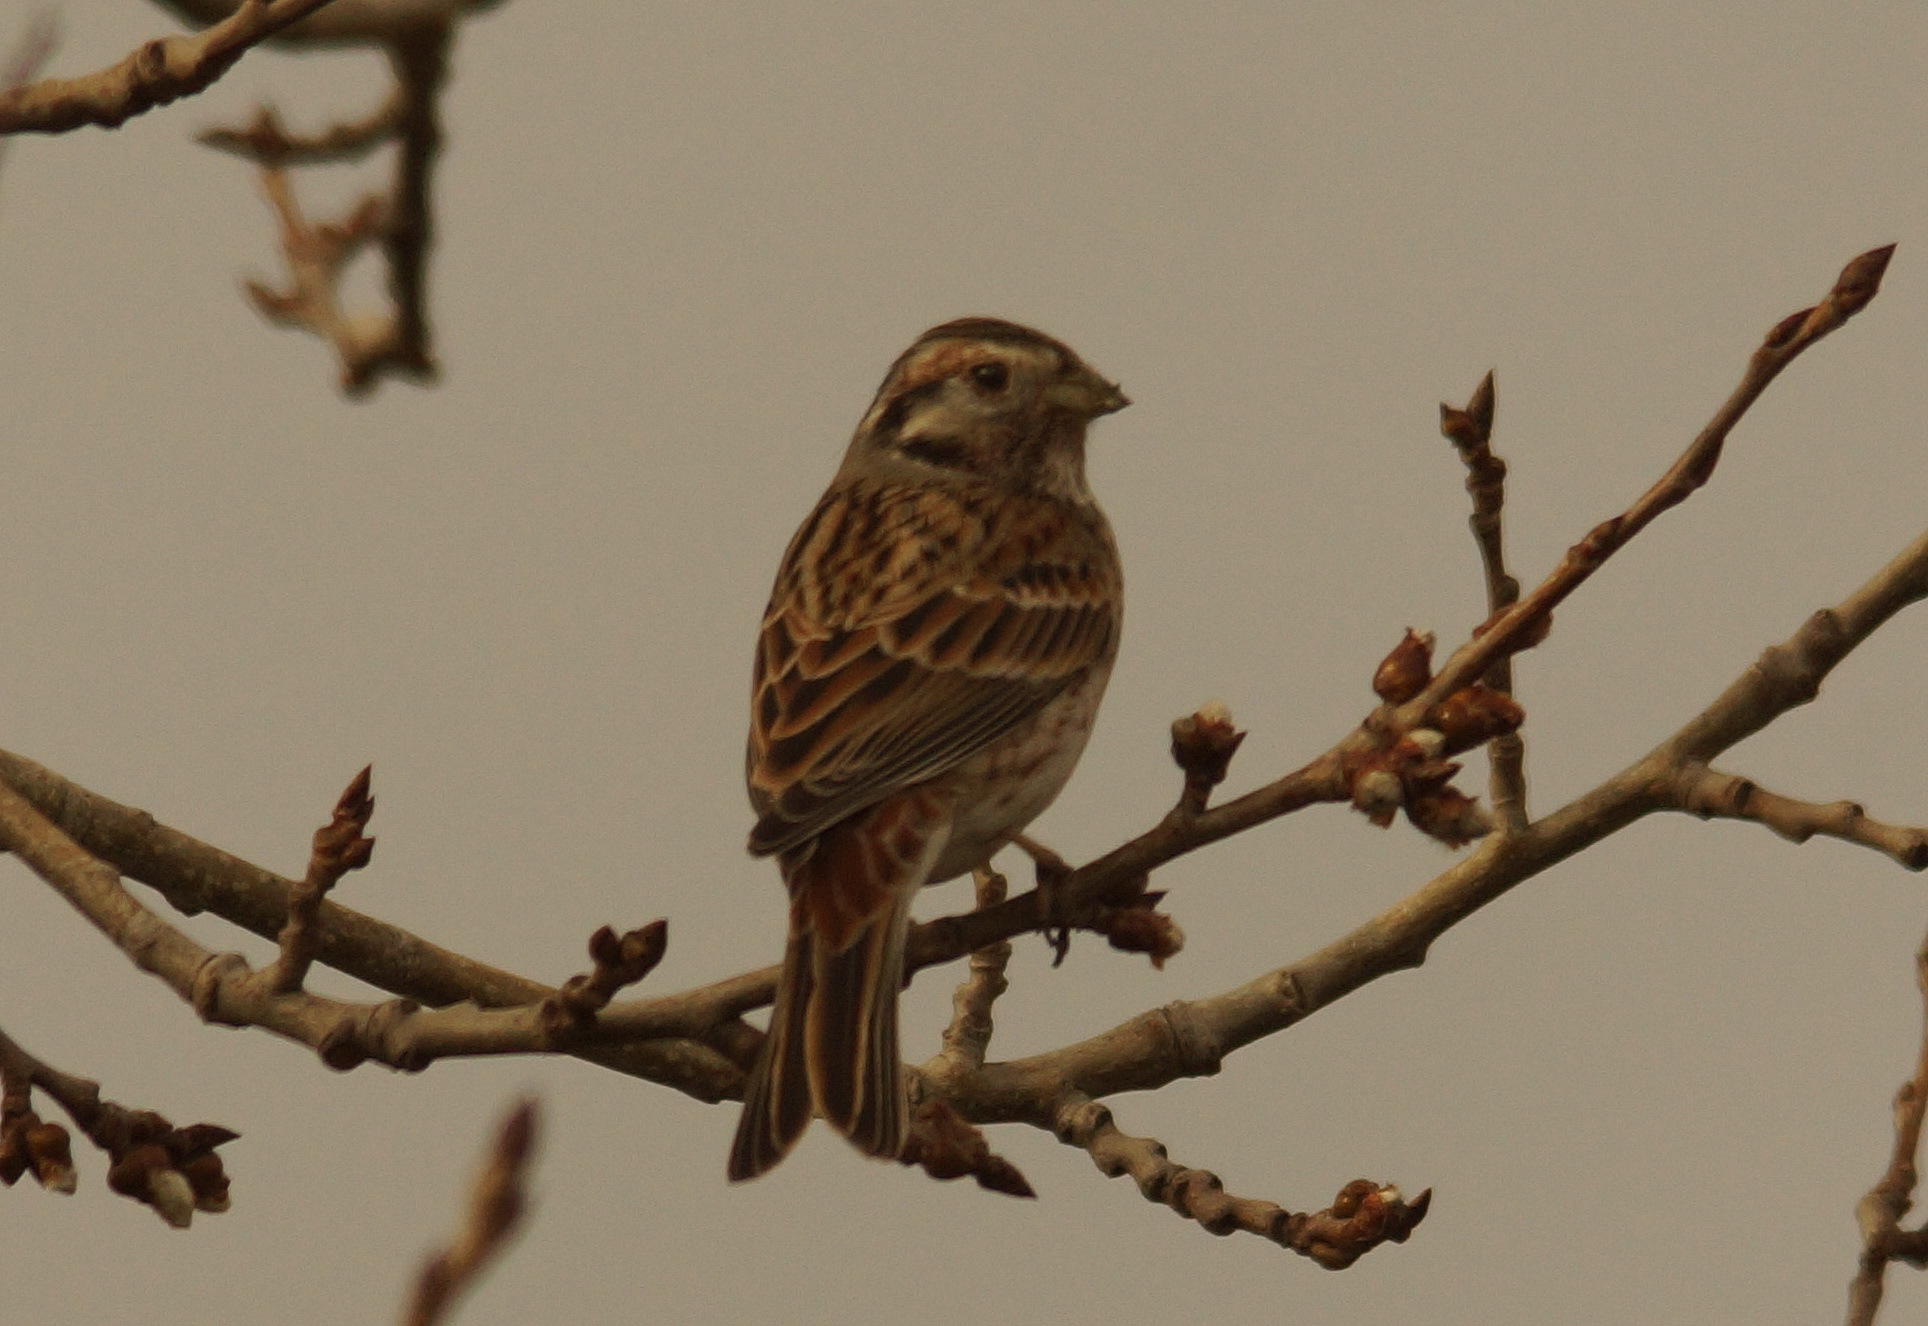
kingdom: Animalia
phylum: Chordata
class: Aves
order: Passeriformes
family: Emberizidae
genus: Emberiza
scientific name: Emberiza leucocephalos
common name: Pine bunting
